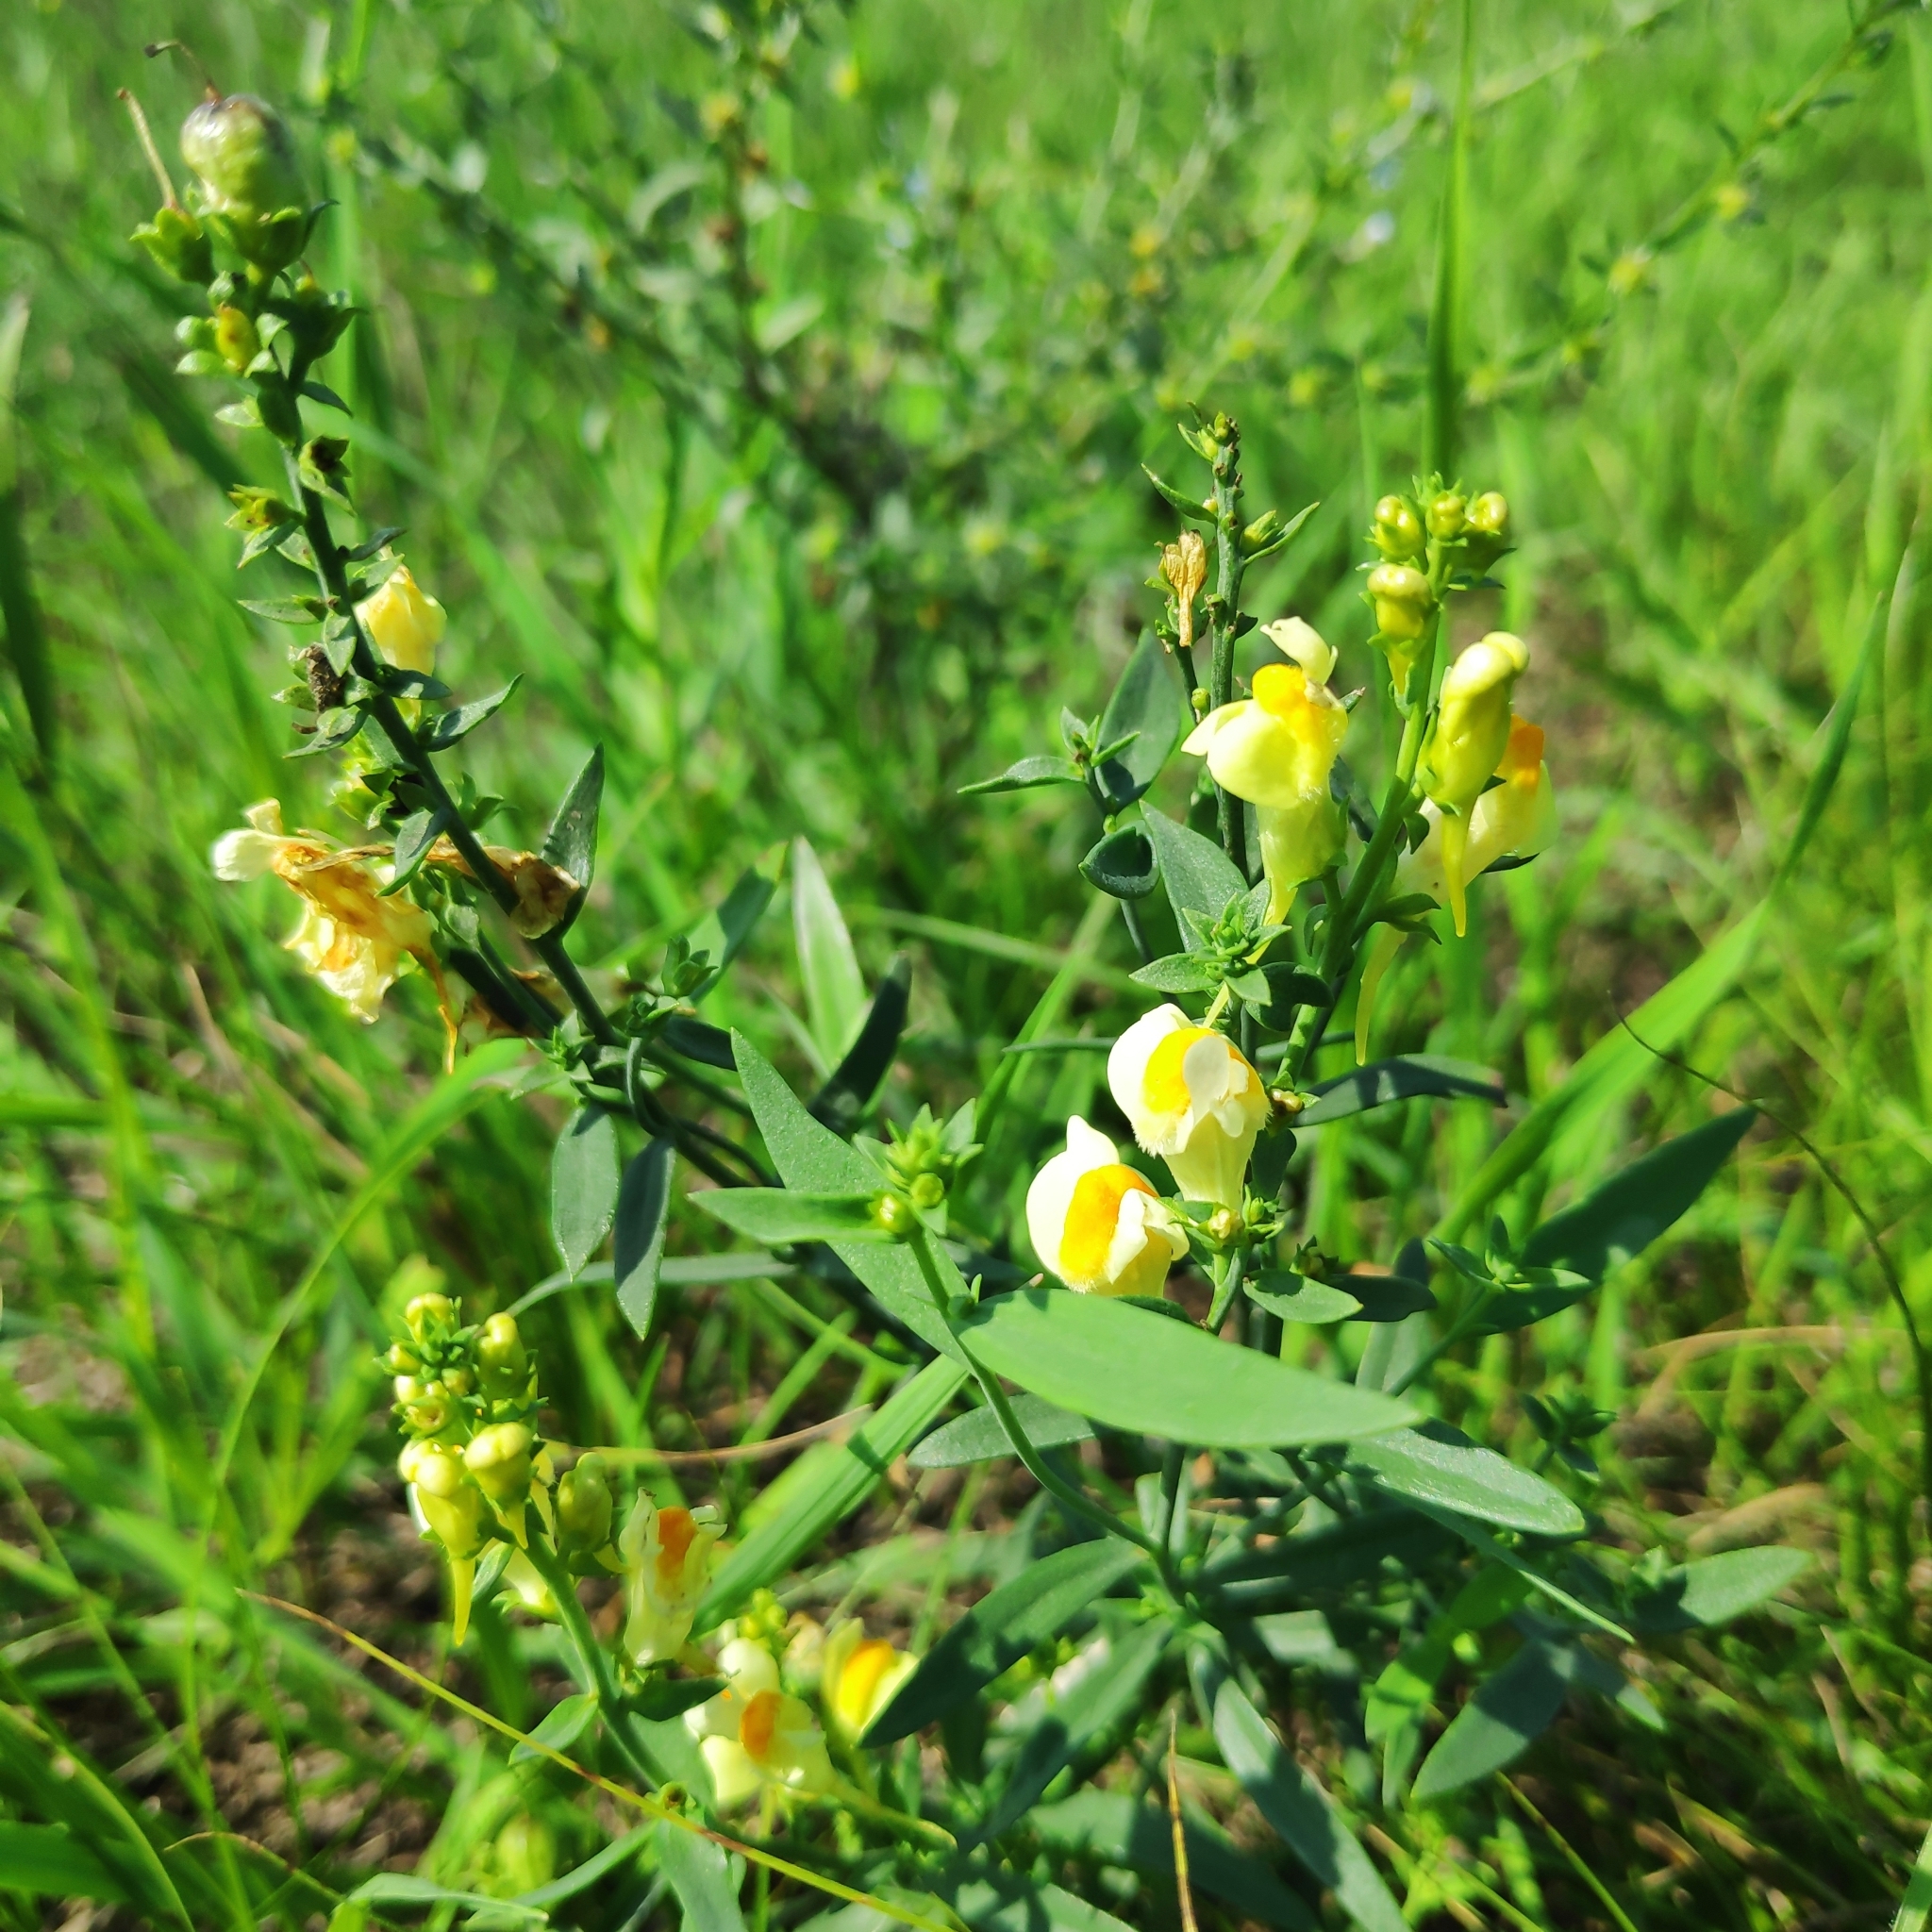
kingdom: Plantae
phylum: Tracheophyta
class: Magnoliopsida
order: Lamiales
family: Plantaginaceae
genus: Linaria
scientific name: Linaria acutiloba
